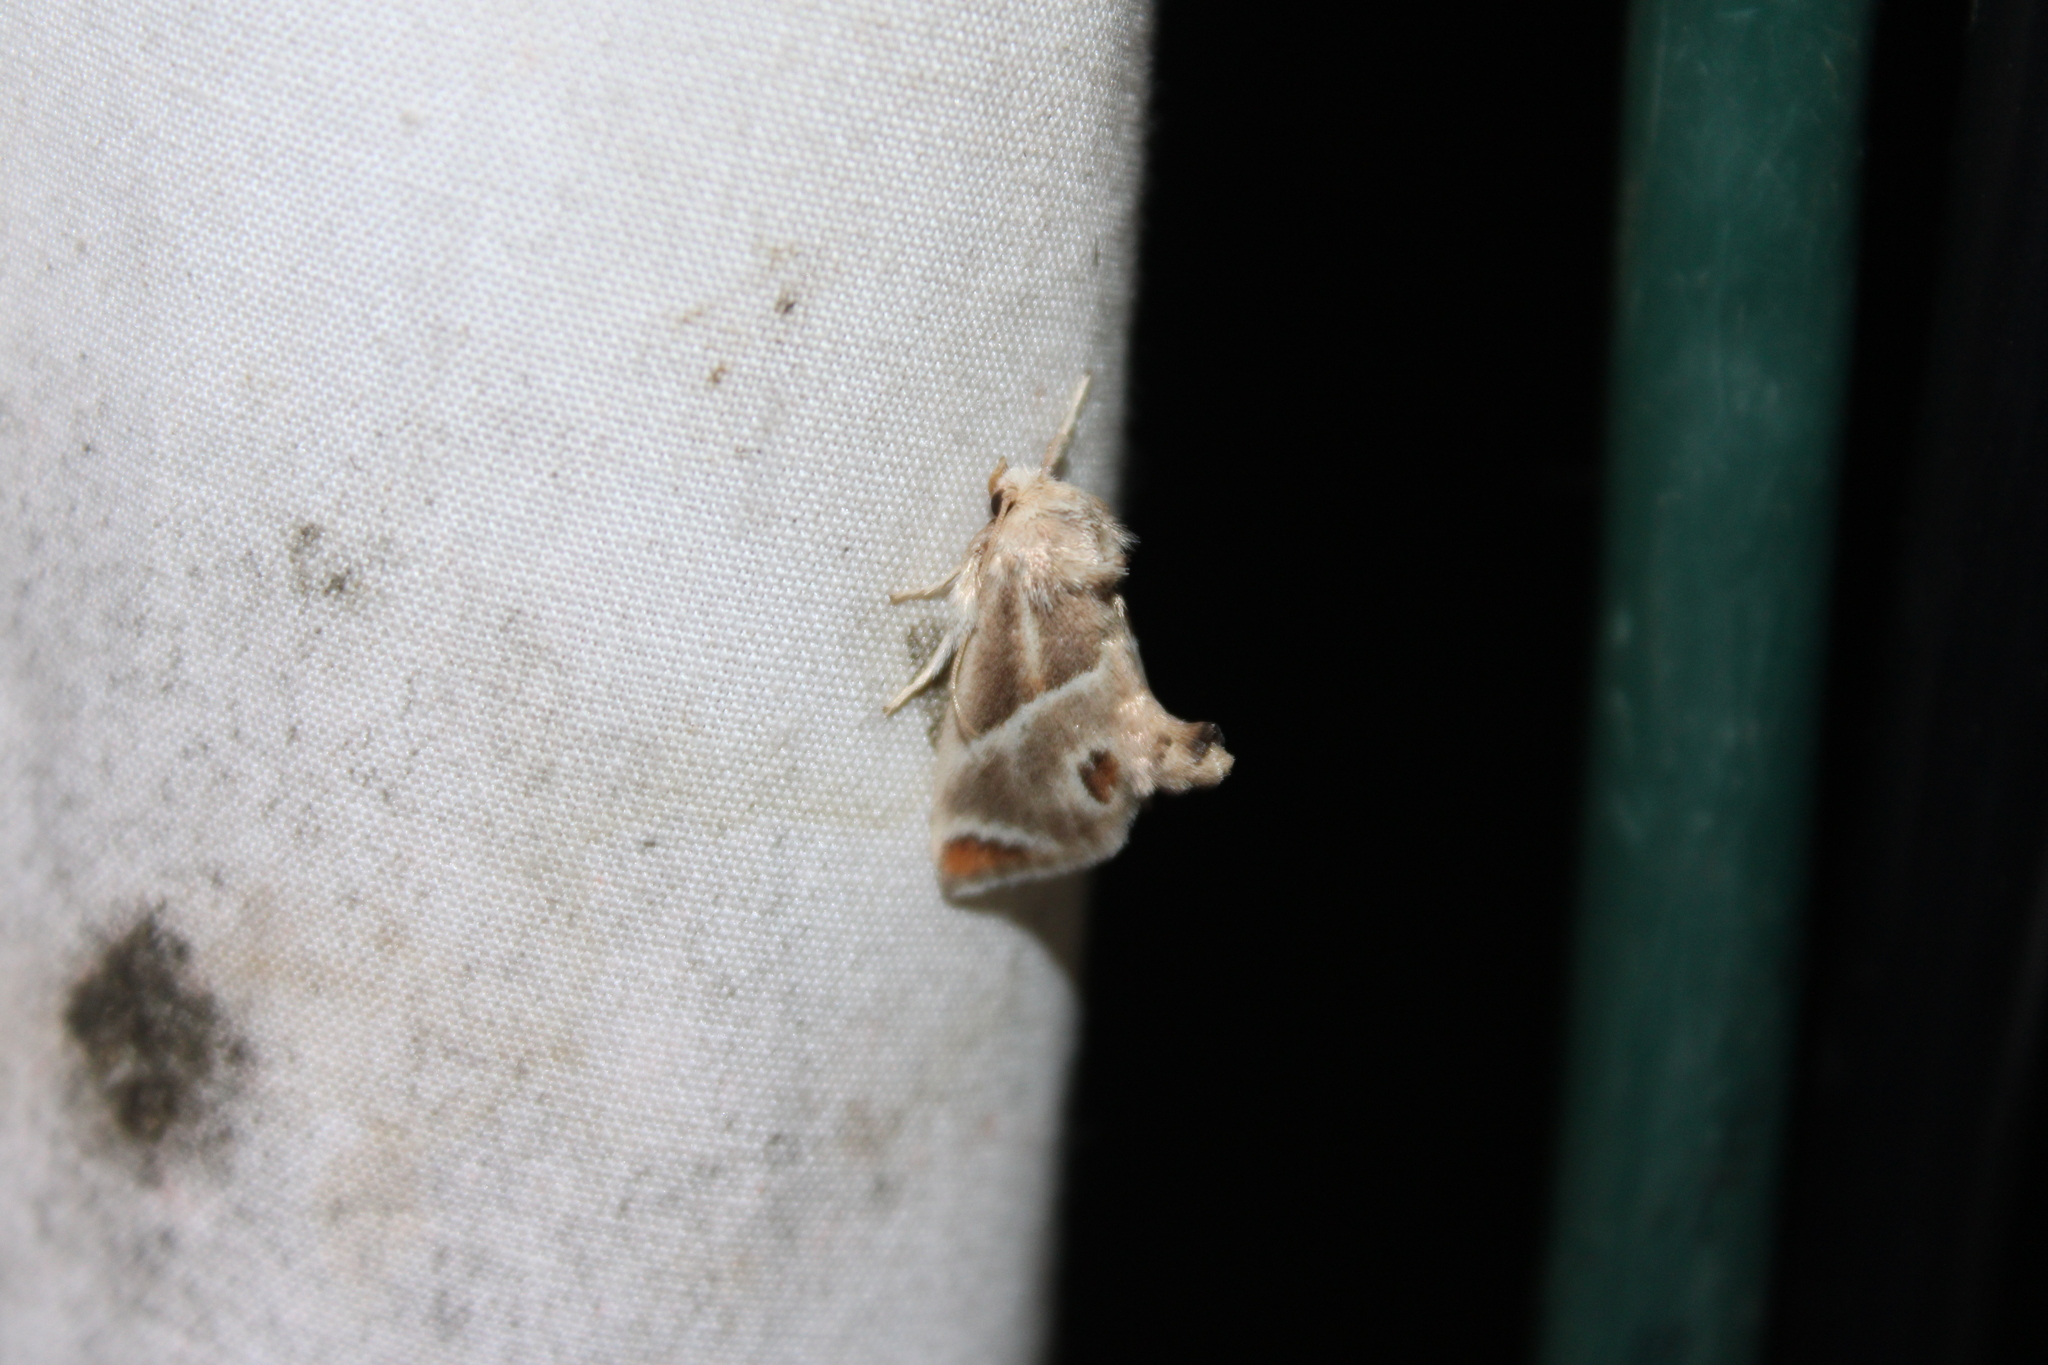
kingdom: Animalia
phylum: Arthropoda
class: Insecta
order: Lepidoptera
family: Limacodidae
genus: Apoda
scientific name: Apoda biguttata
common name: Shagreened slug moth
